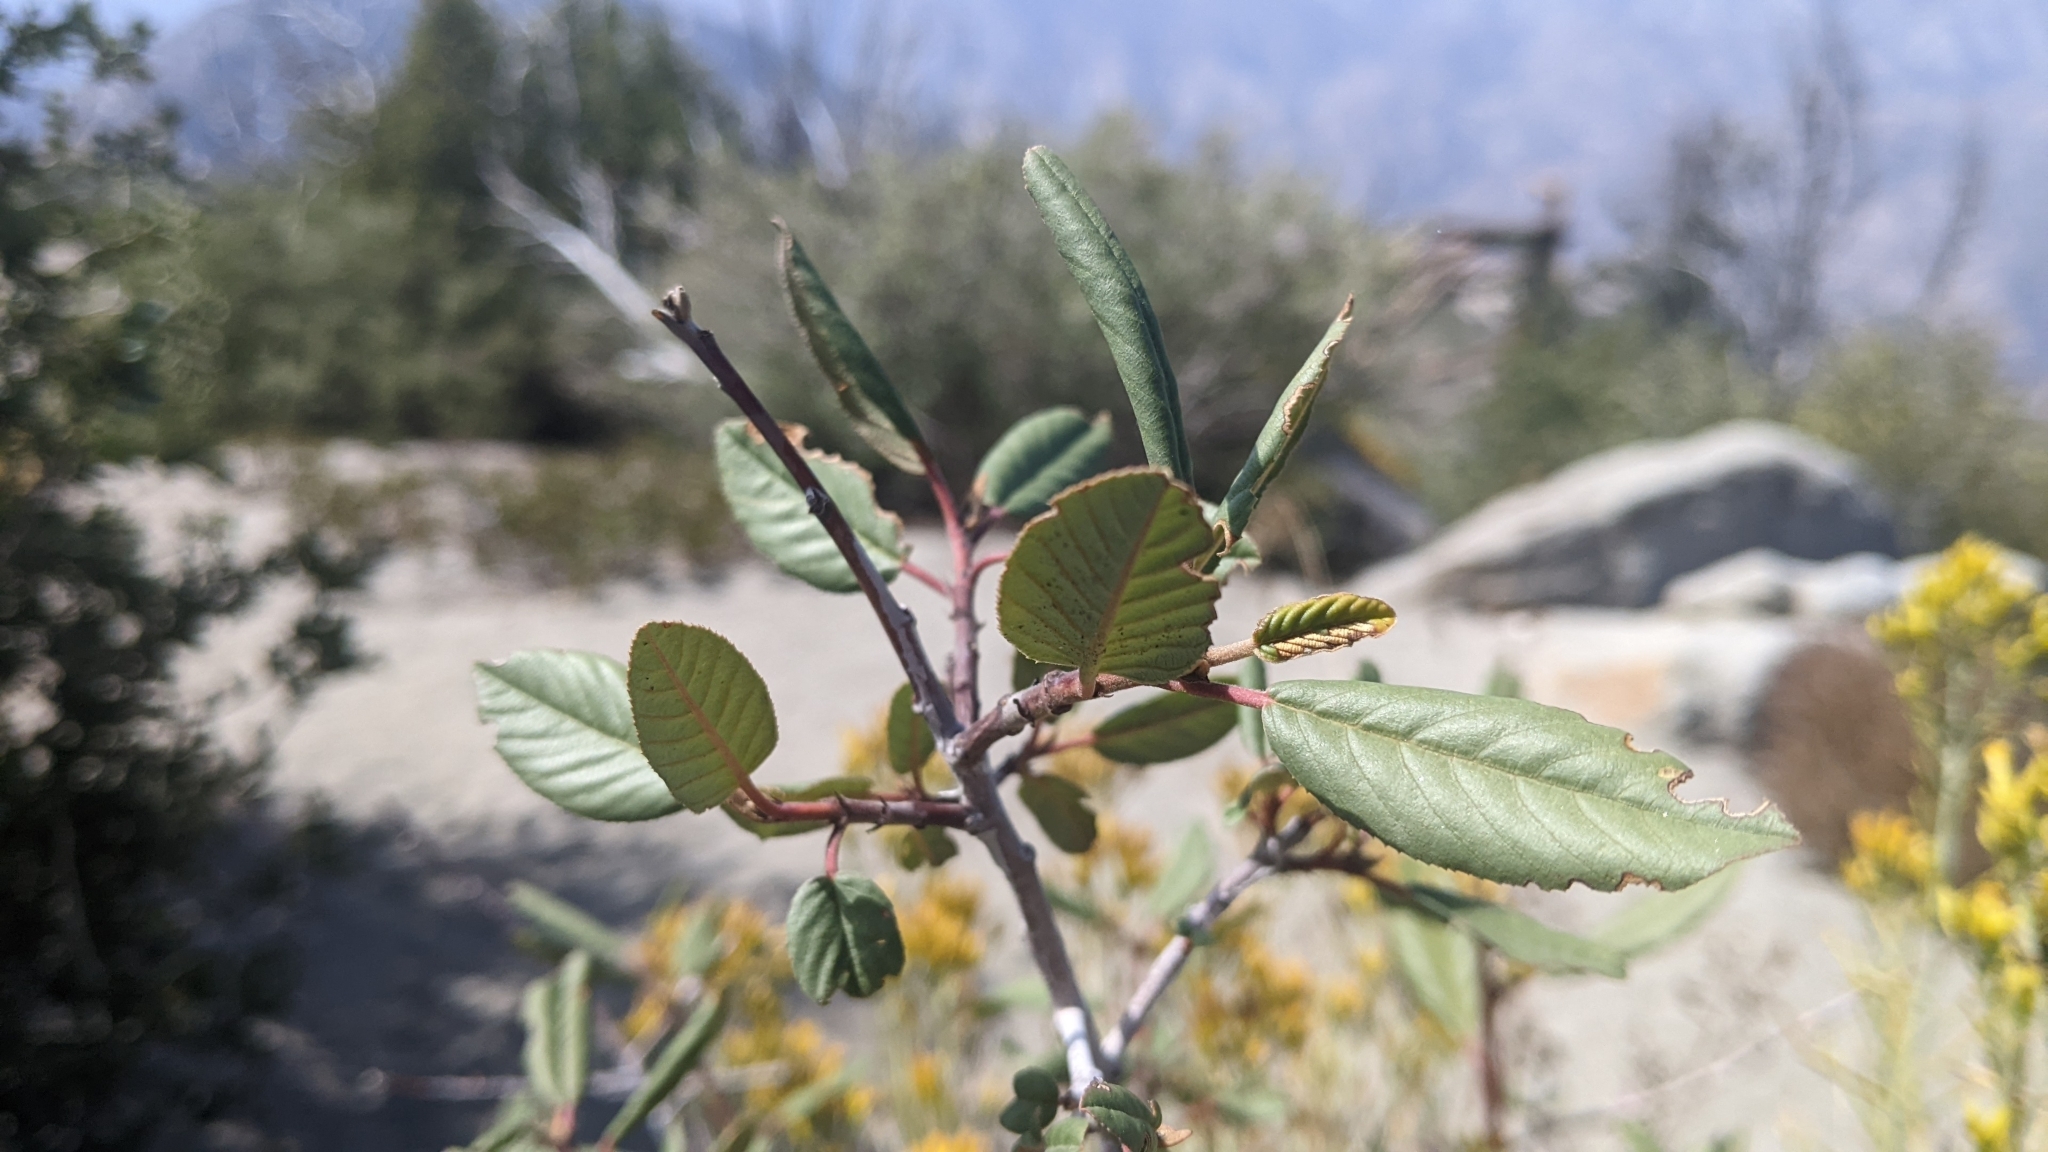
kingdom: Plantae
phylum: Tracheophyta
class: Magnoliopsida
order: Rosales
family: Rhamnaceae
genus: Frangula
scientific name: Frangula californica
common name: California buckthorn
